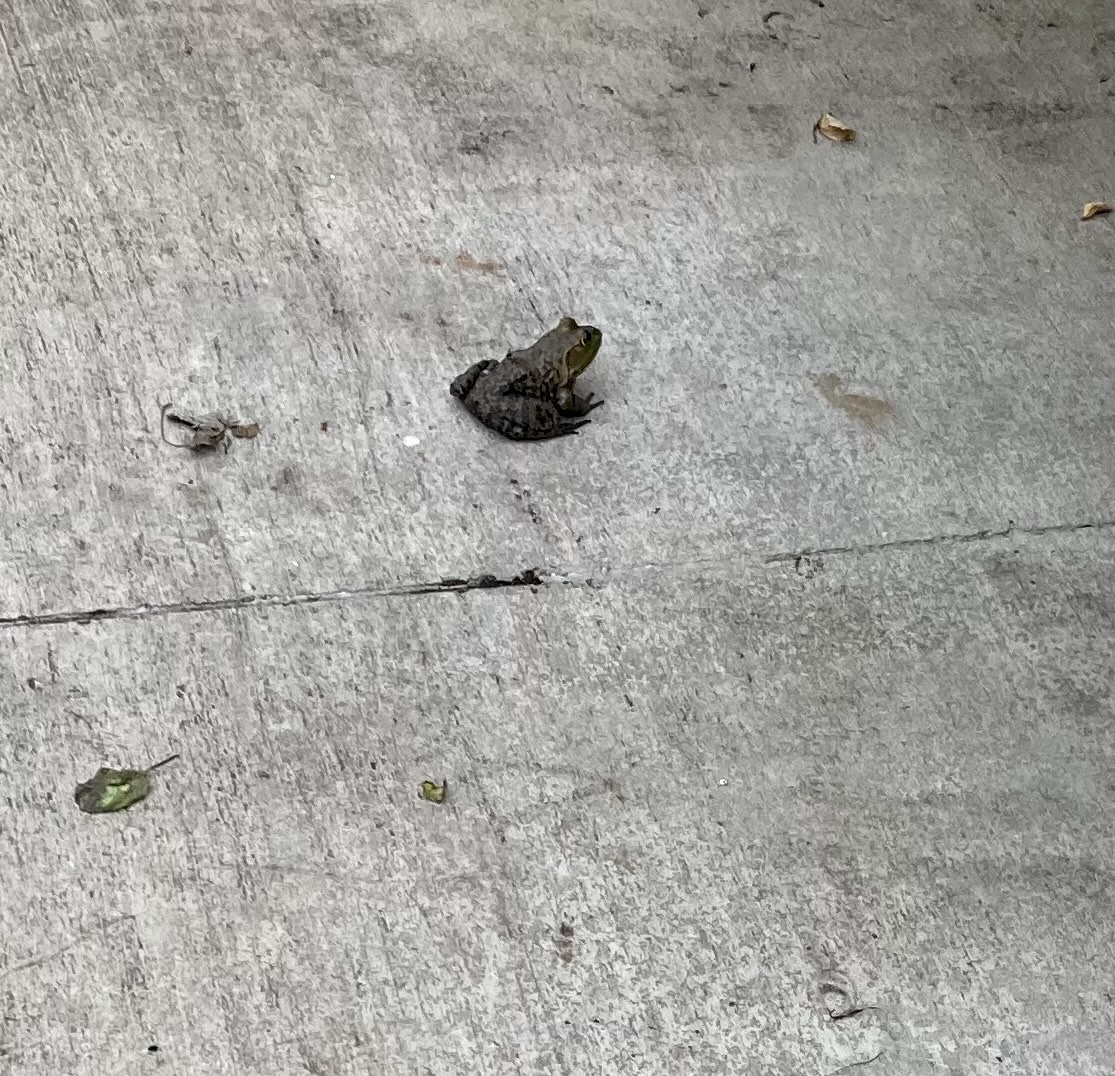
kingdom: Animalia
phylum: Chordata
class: Amphibia
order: Anura
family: Ranidae
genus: Lithobates
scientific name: Lithobates catesbeianus
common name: American bullfrog
